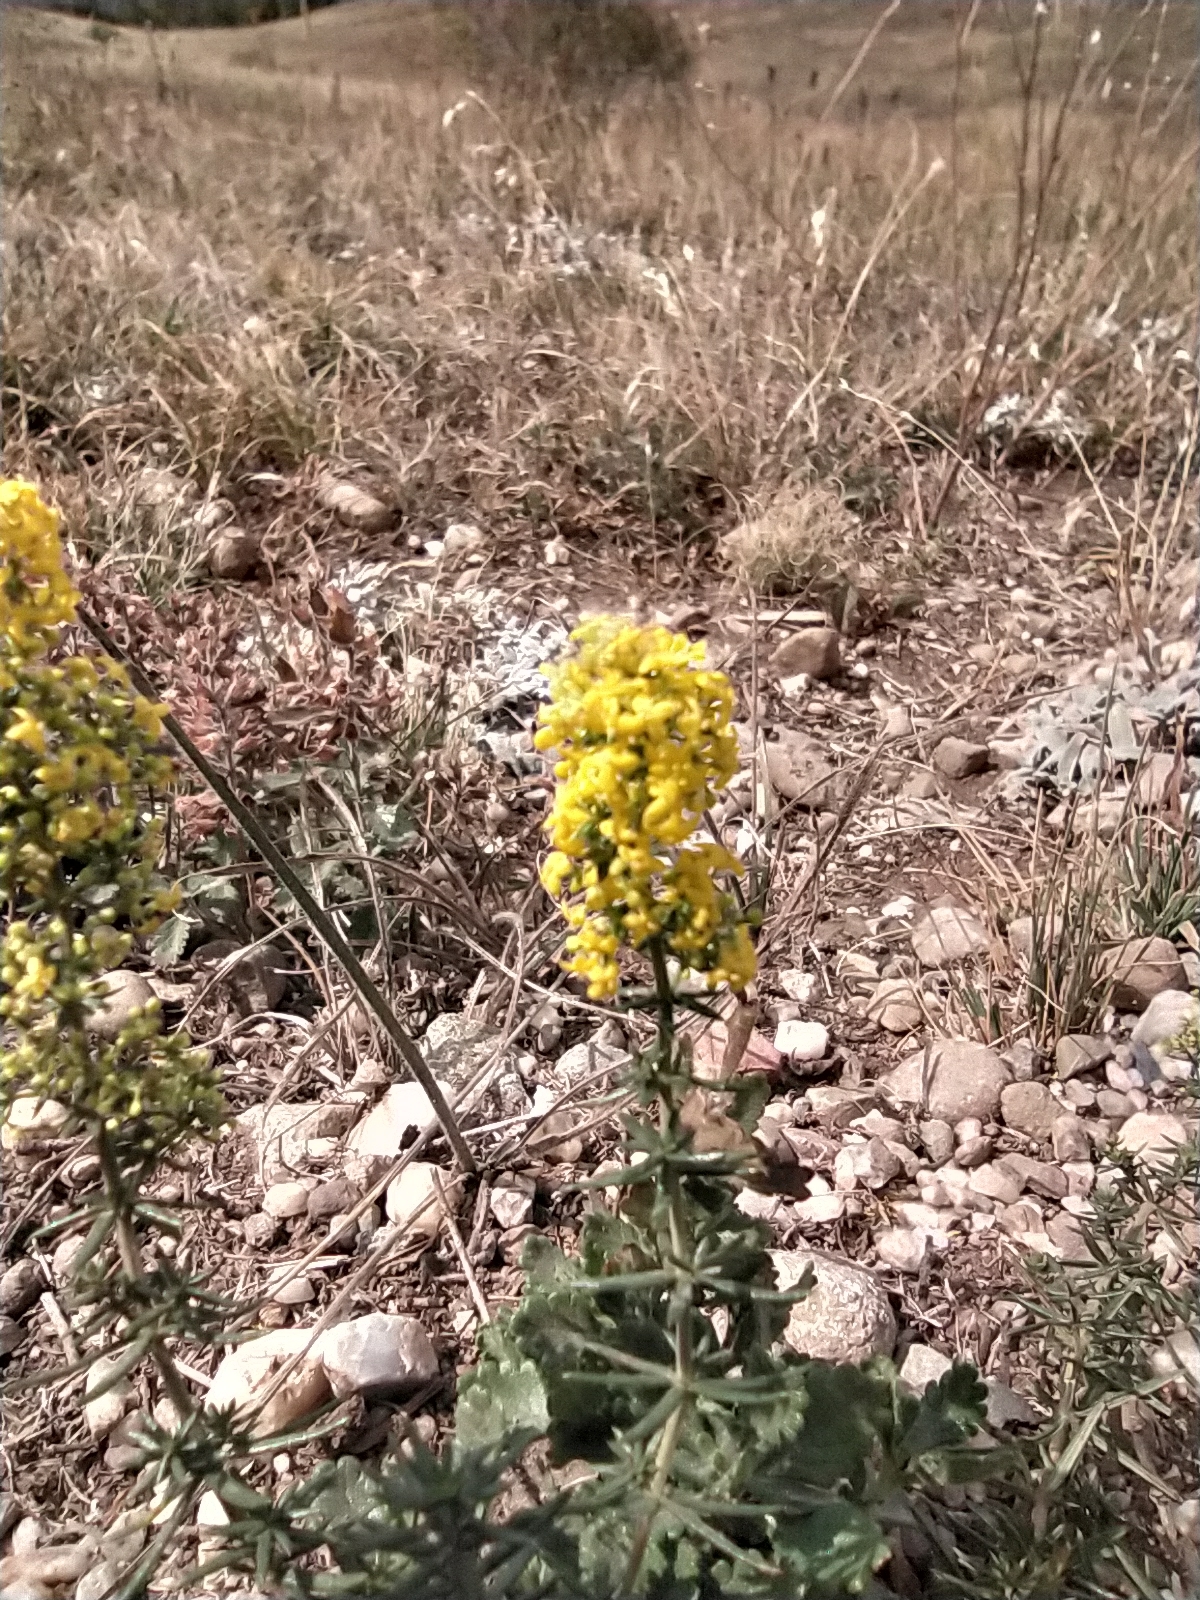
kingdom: Plantae
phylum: Tracheophyta
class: Magnoliopsida
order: Gentianales
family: Rubiaceae
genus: Galium
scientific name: Galium verum
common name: Lady's bedstraw
